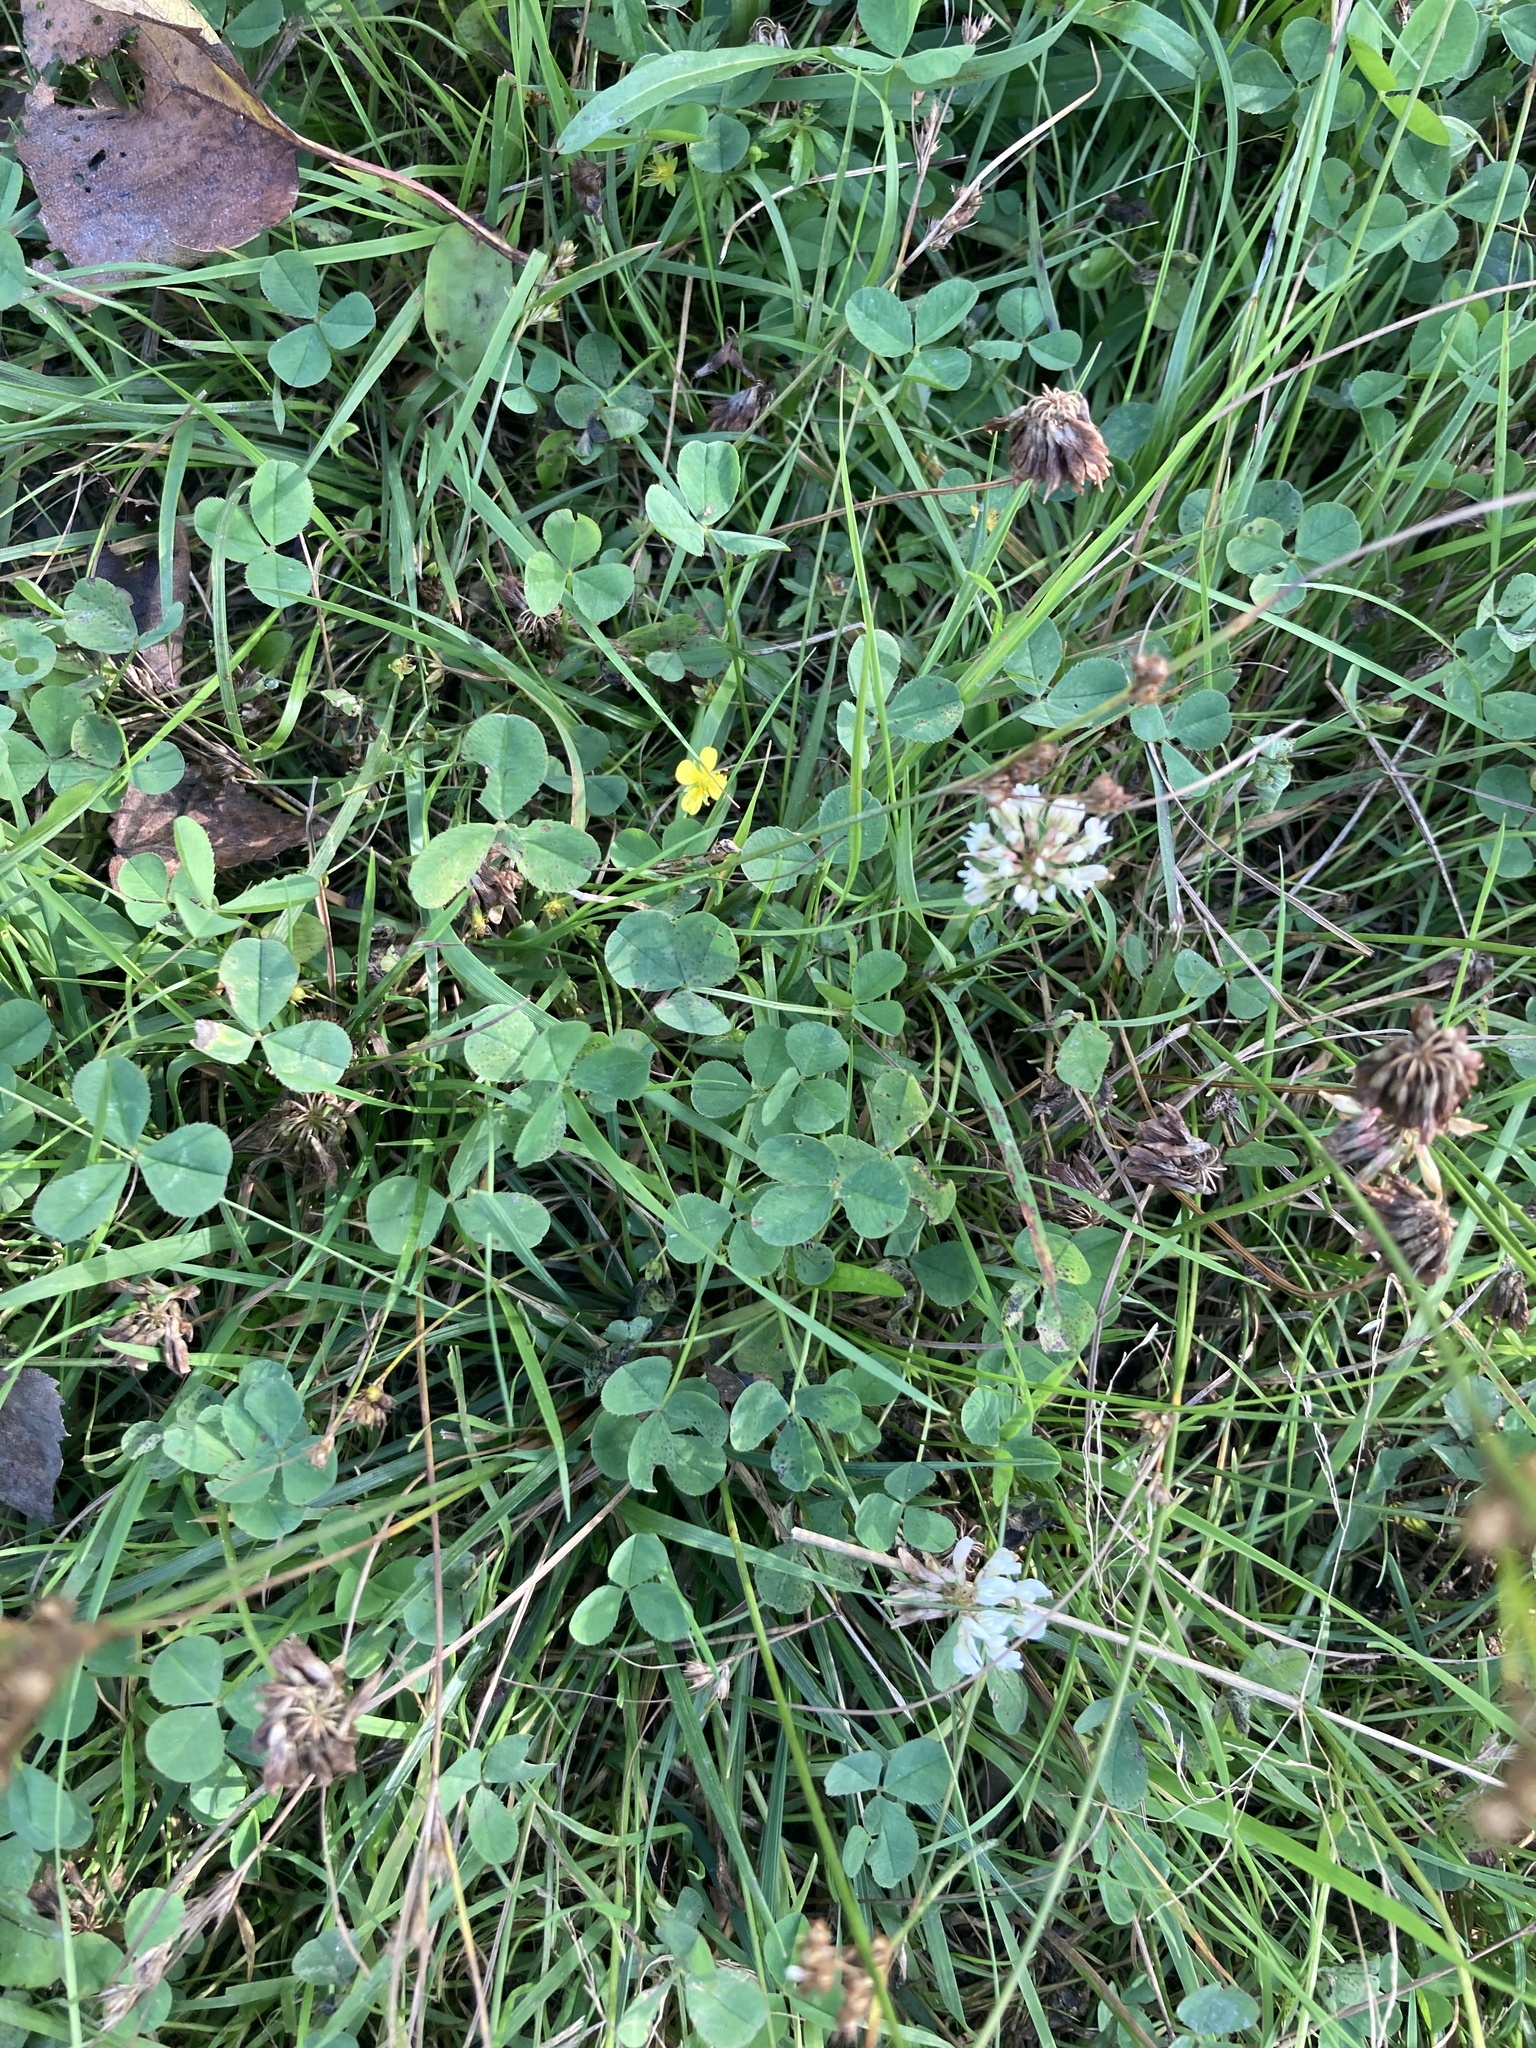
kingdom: Plantae
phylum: Tracheophyta
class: Magnoliopsida
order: Fabales
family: Fabaceae
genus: Trifolium
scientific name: Trifolium repens
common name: White clover
